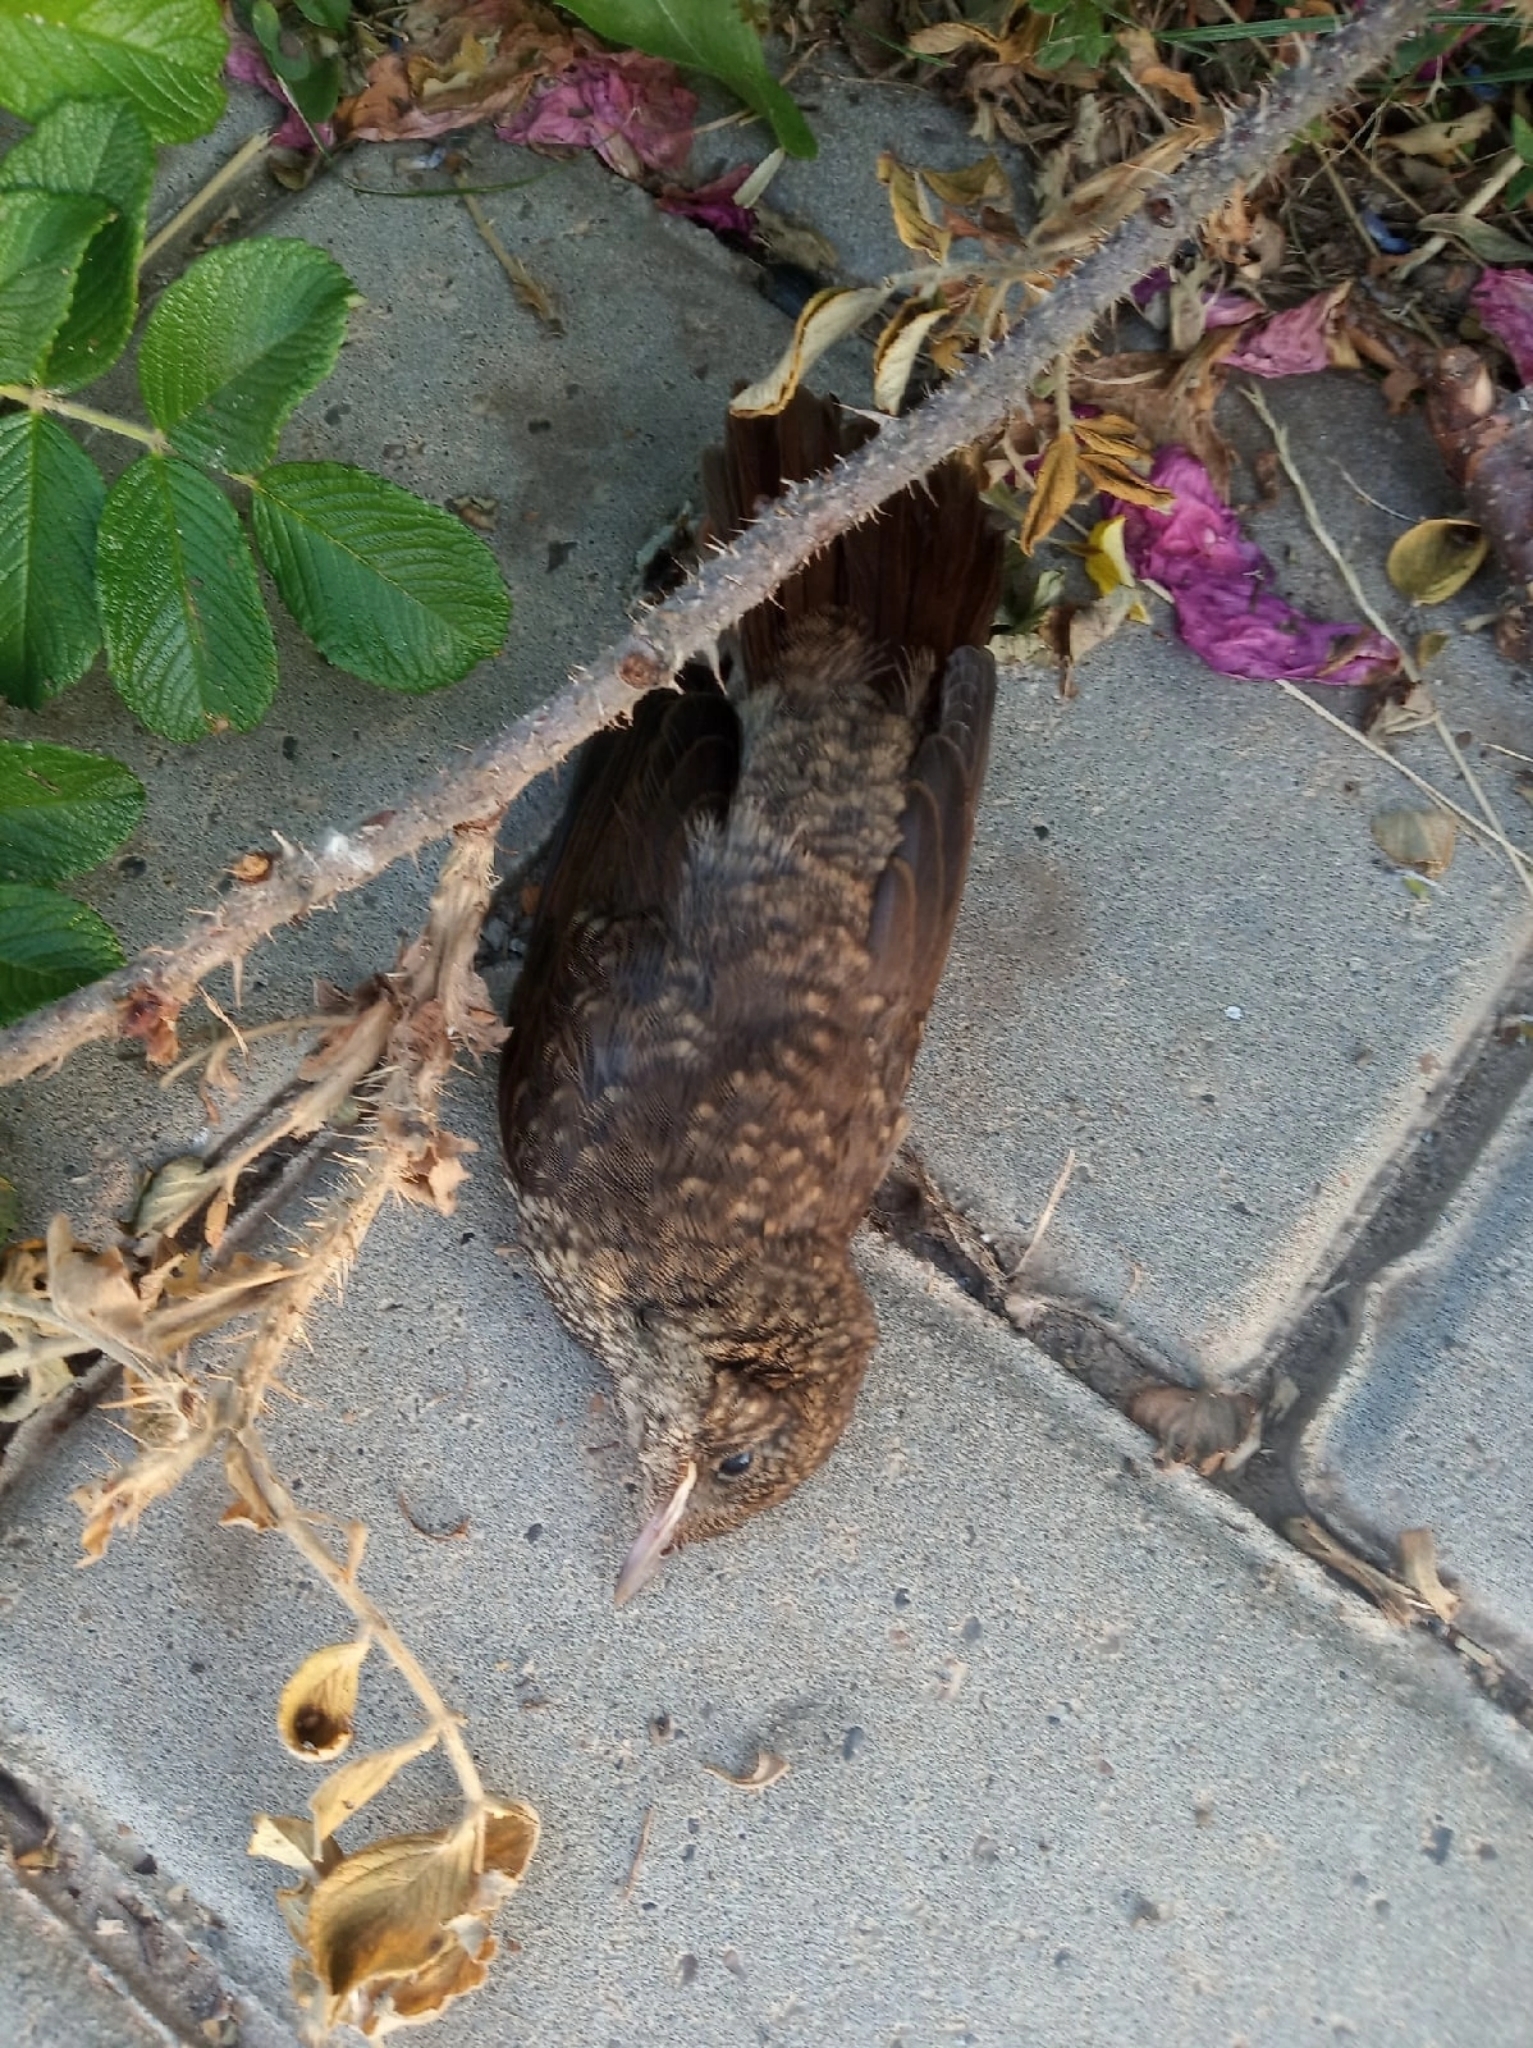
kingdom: Animalia
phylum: Chordata
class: Aves
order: Passeriformes
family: Muscicapidae
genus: Luscinia
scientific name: Luscinia luscinia
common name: Thrush nightingale
